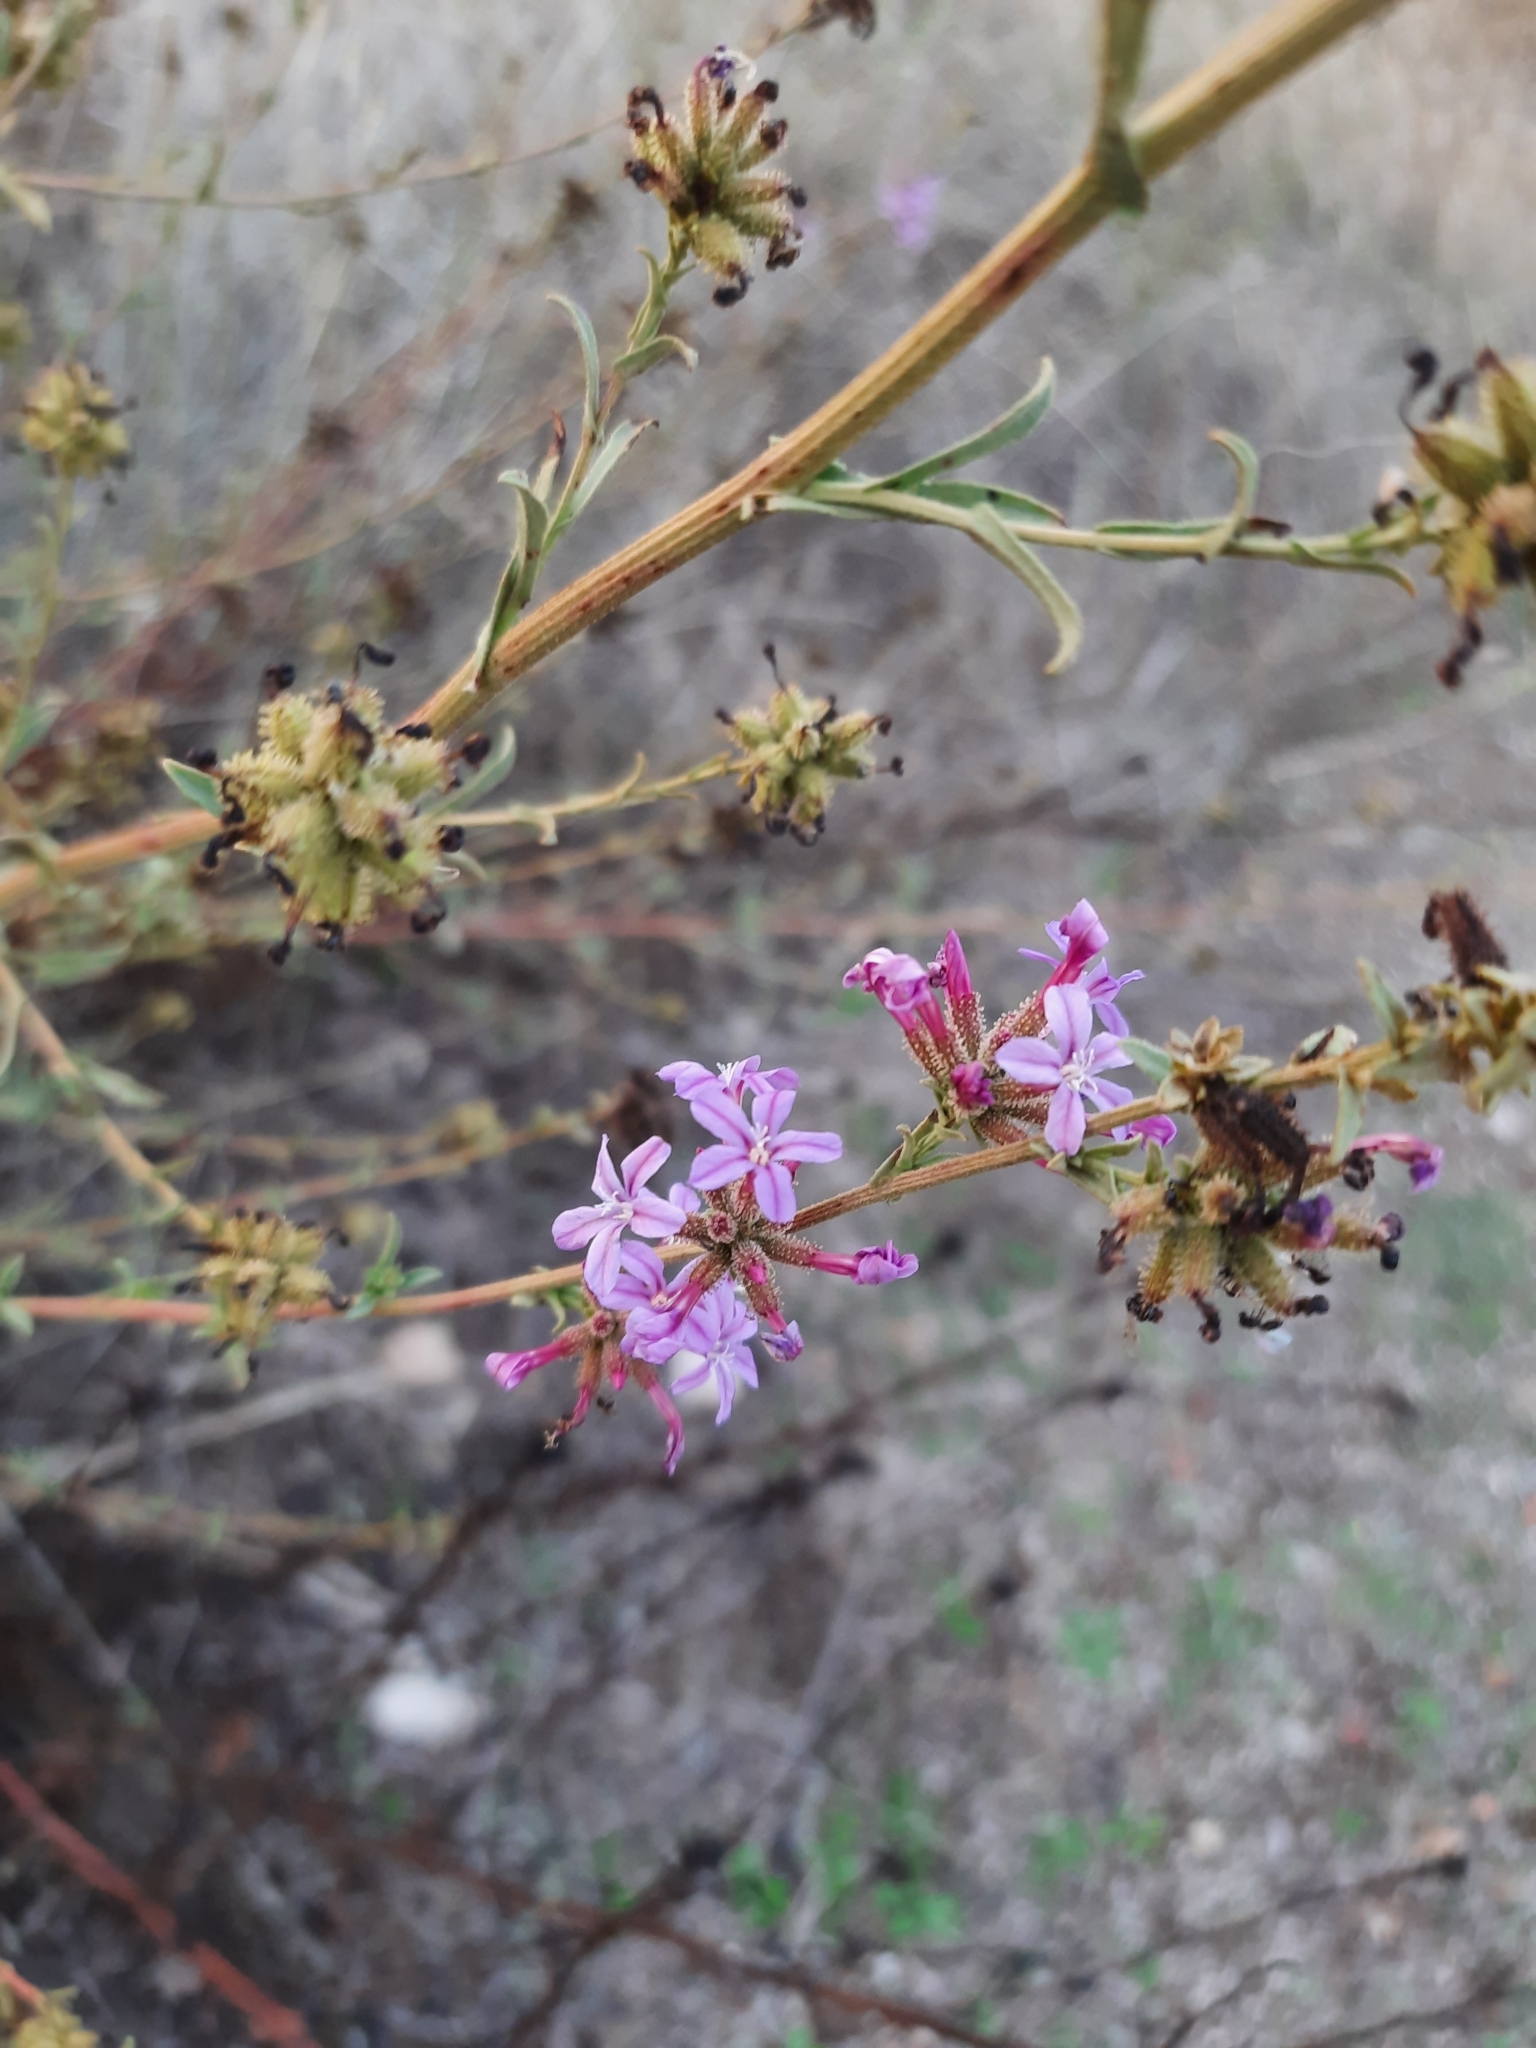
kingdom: Plantae
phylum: Tracheophyta
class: Magnoliopsida
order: Caryophyllales
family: Plumbaginaceae
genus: Plumbago
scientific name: Plumbago europaea
